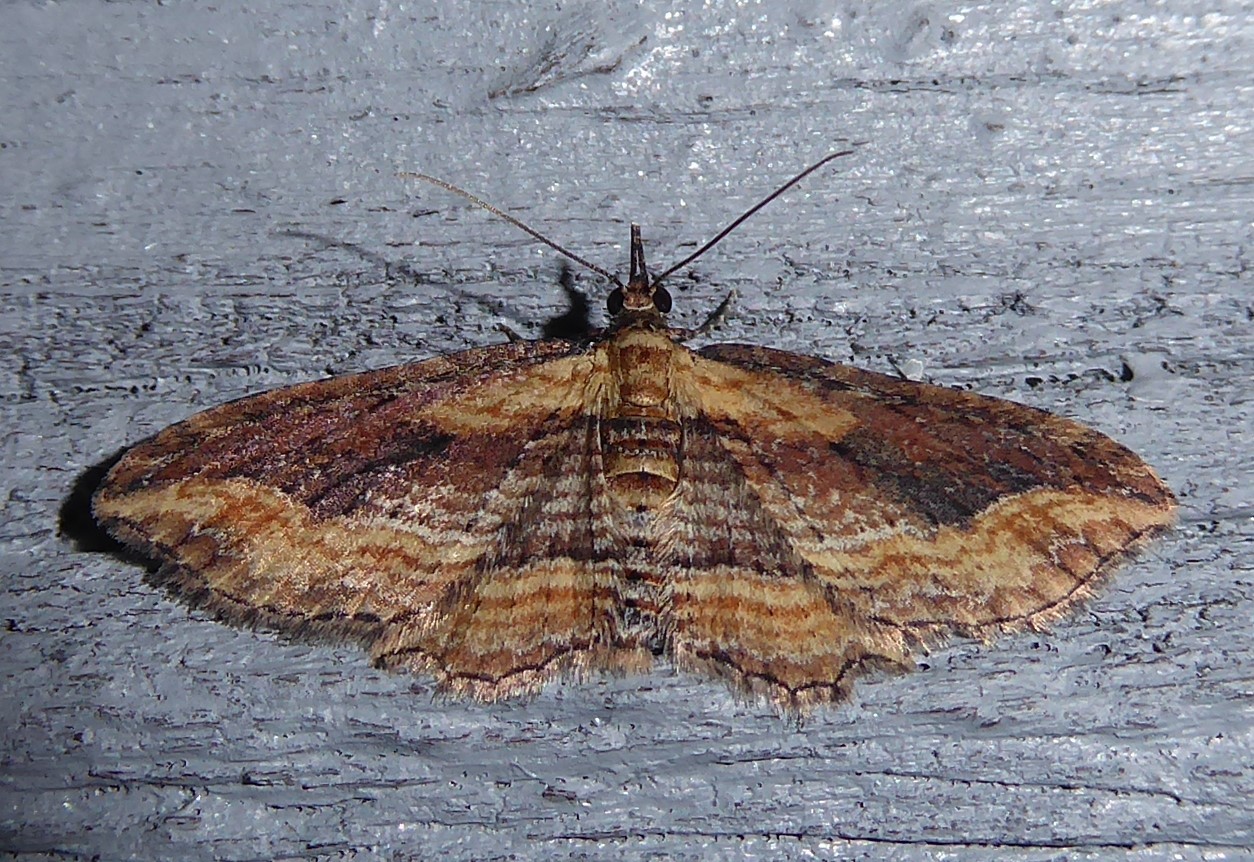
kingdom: Animalia
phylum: Arthropoda
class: Insecta
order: Lepidoptera
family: Geometridae
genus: Chloroclystis
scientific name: Chloroclystis filata
